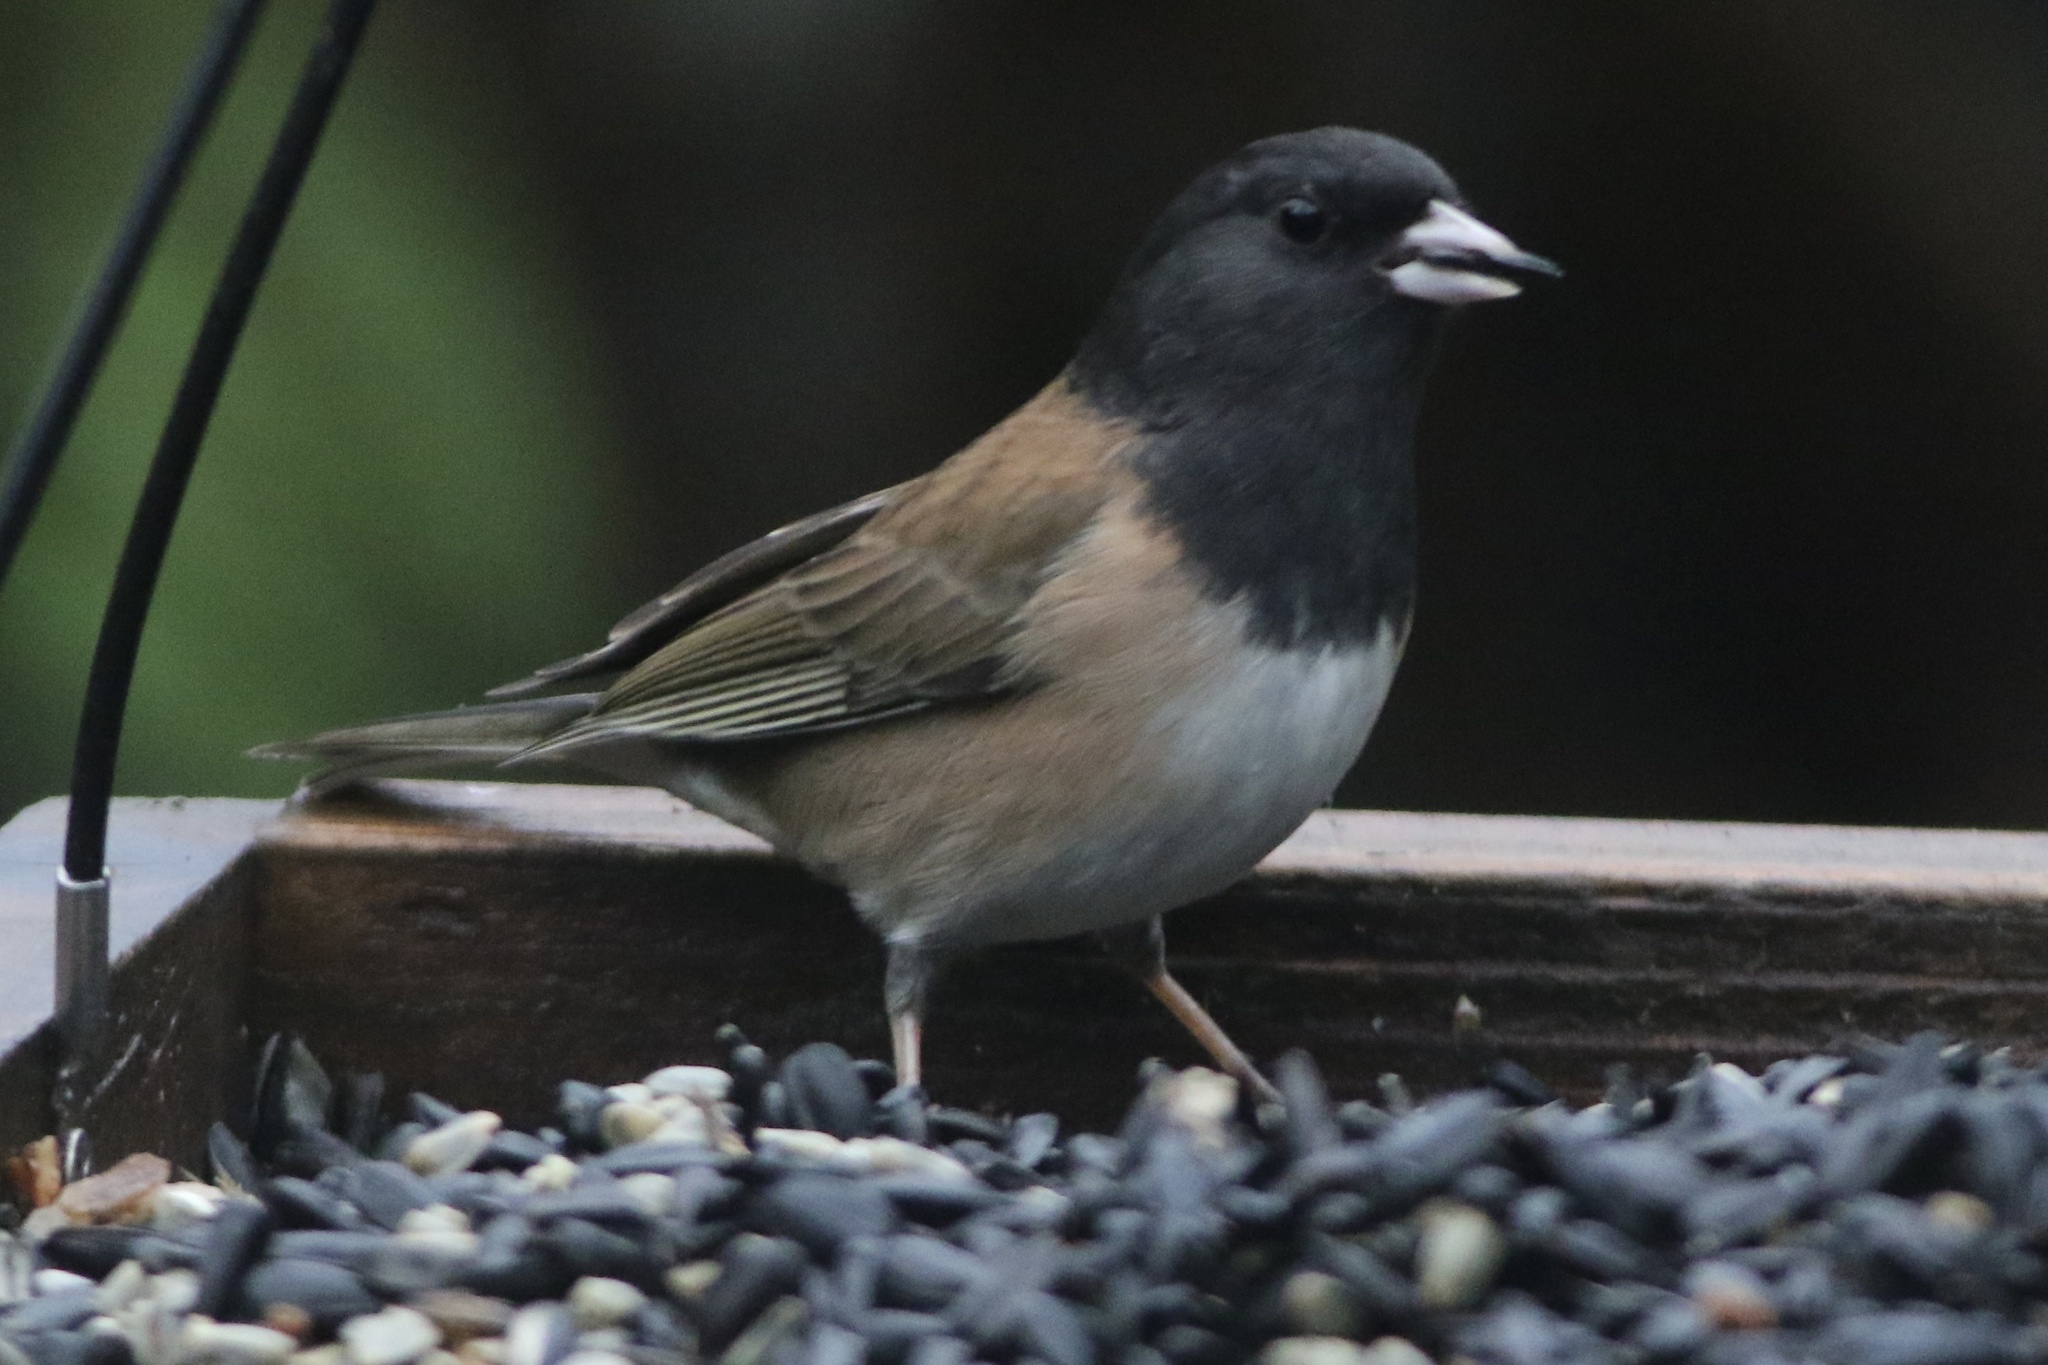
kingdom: Animalia
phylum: Chordata
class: Aves
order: Passeriformes
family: Passerellidae
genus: Junco
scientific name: Junco hyemalis
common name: Dark-eyed junco
